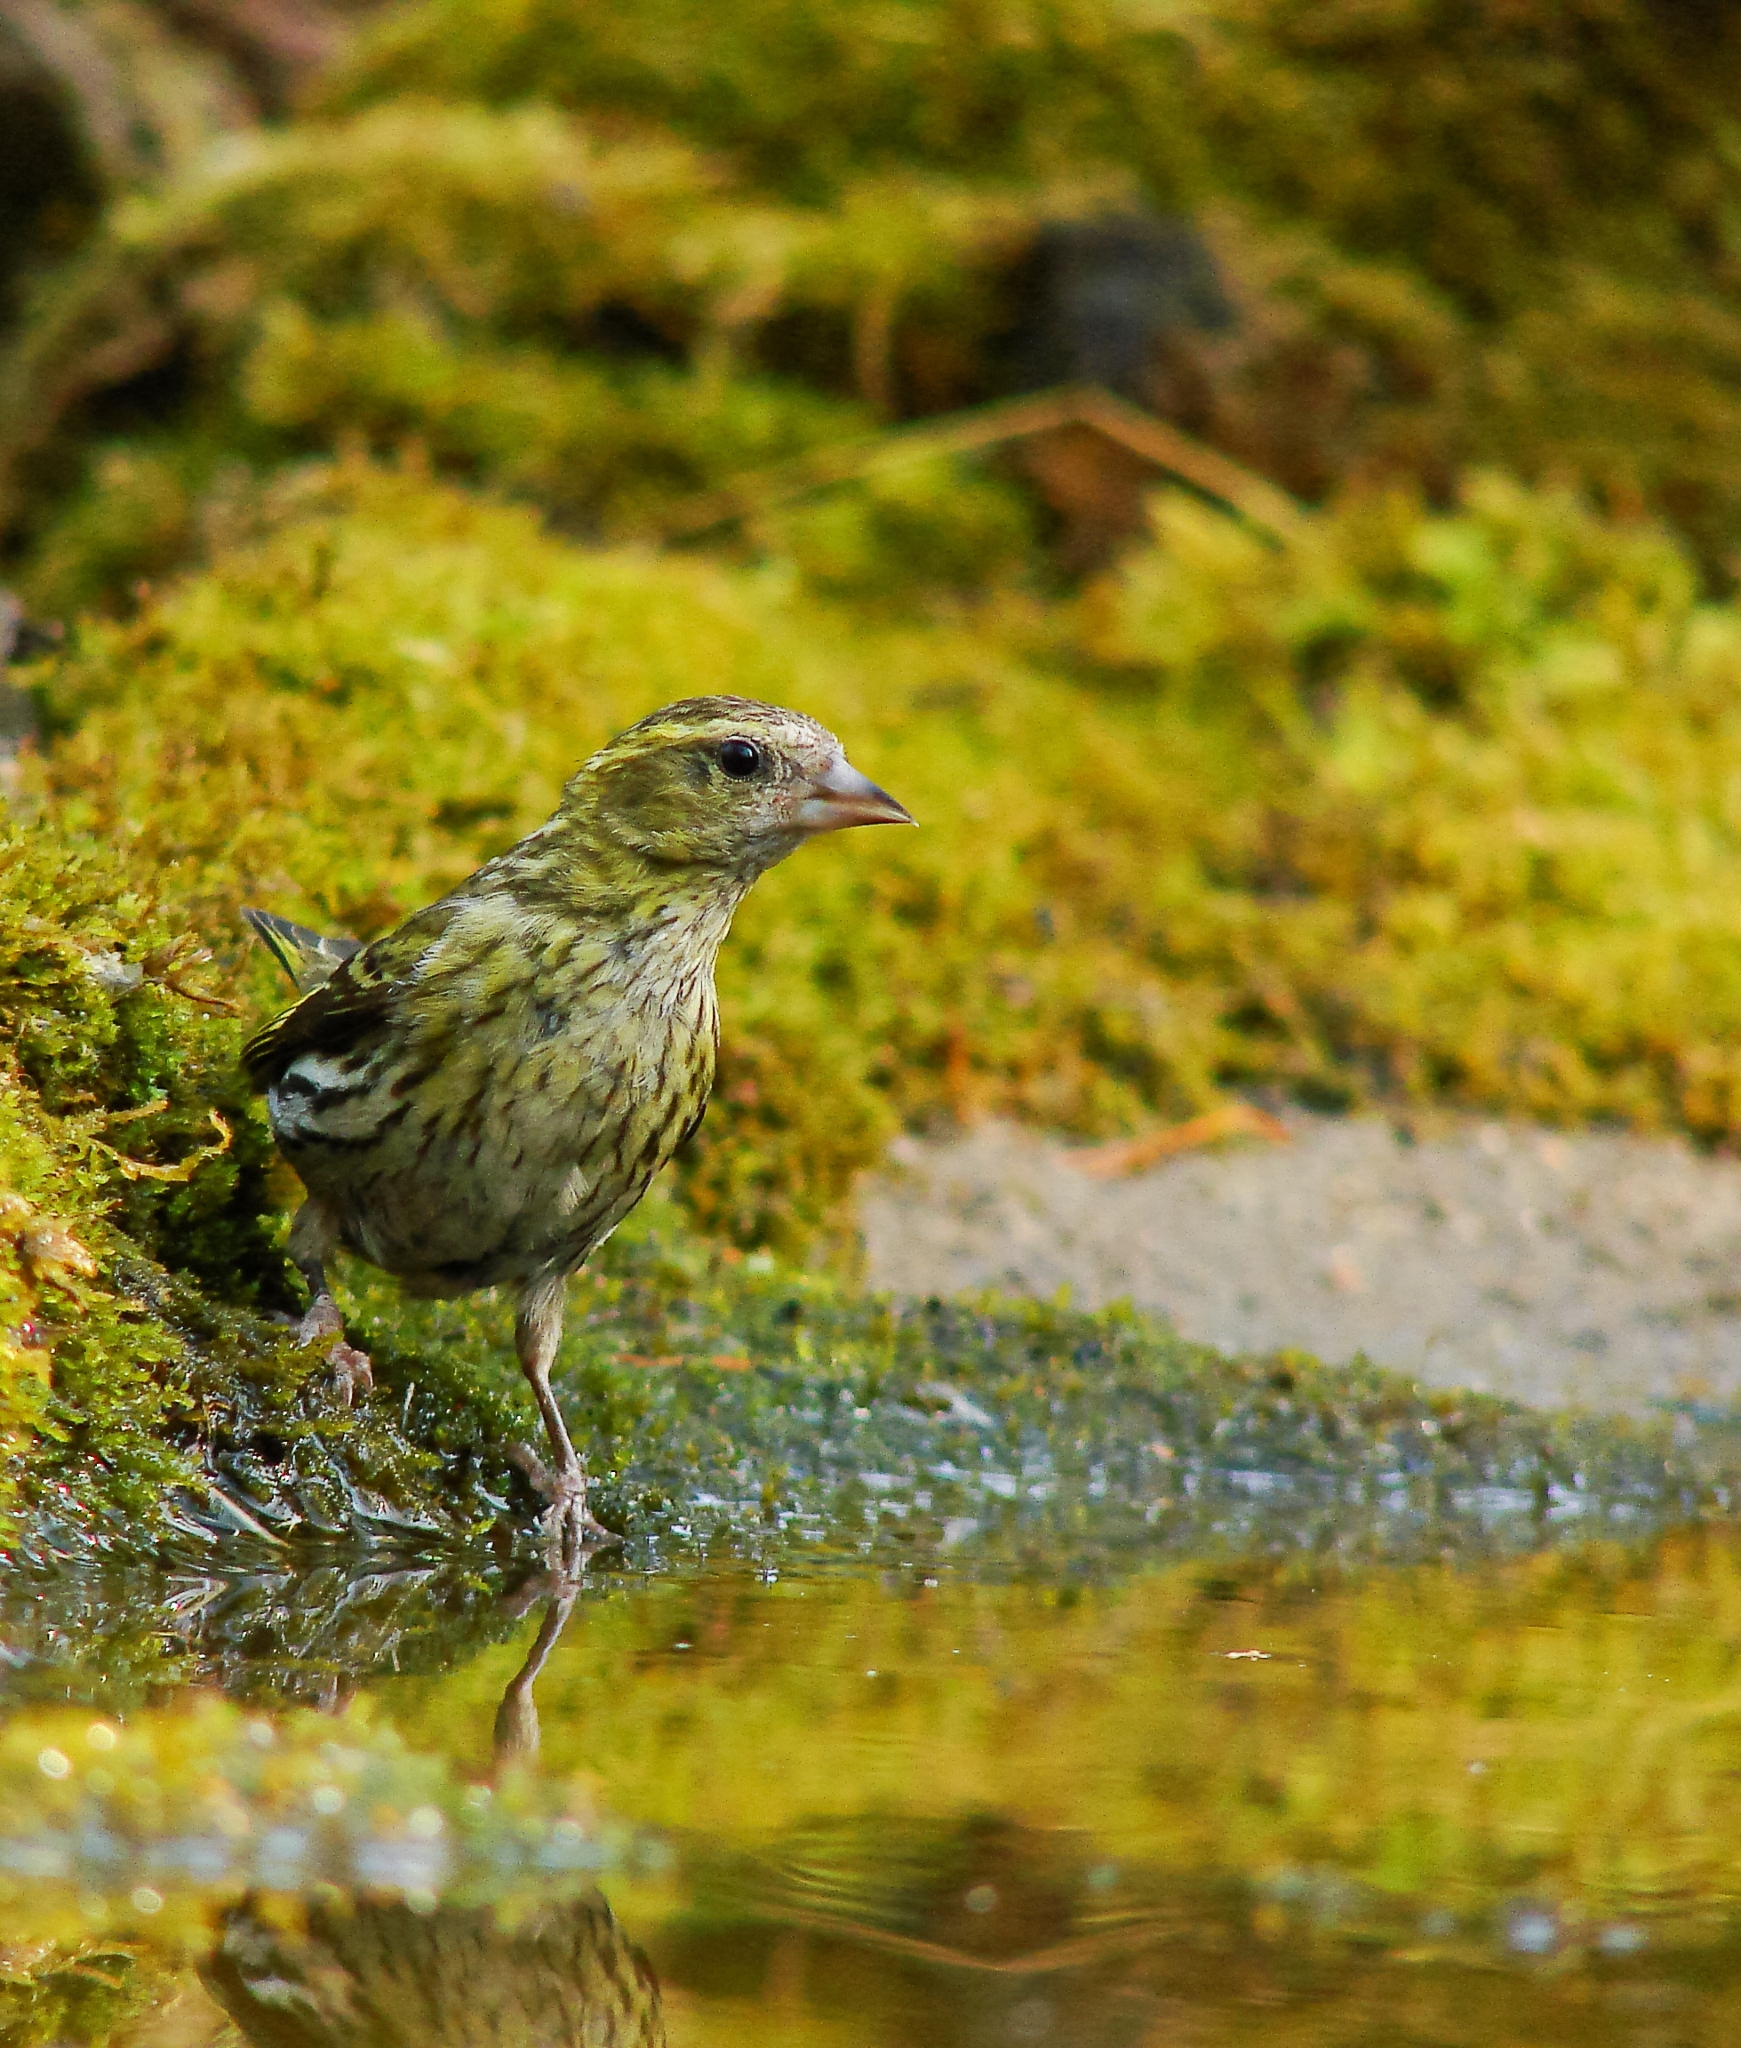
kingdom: Animalia
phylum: Chordata
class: Aves
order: Passeriformes
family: Fringillidae
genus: Spinus
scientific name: Spinus spinus
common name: Eurasian siskin
